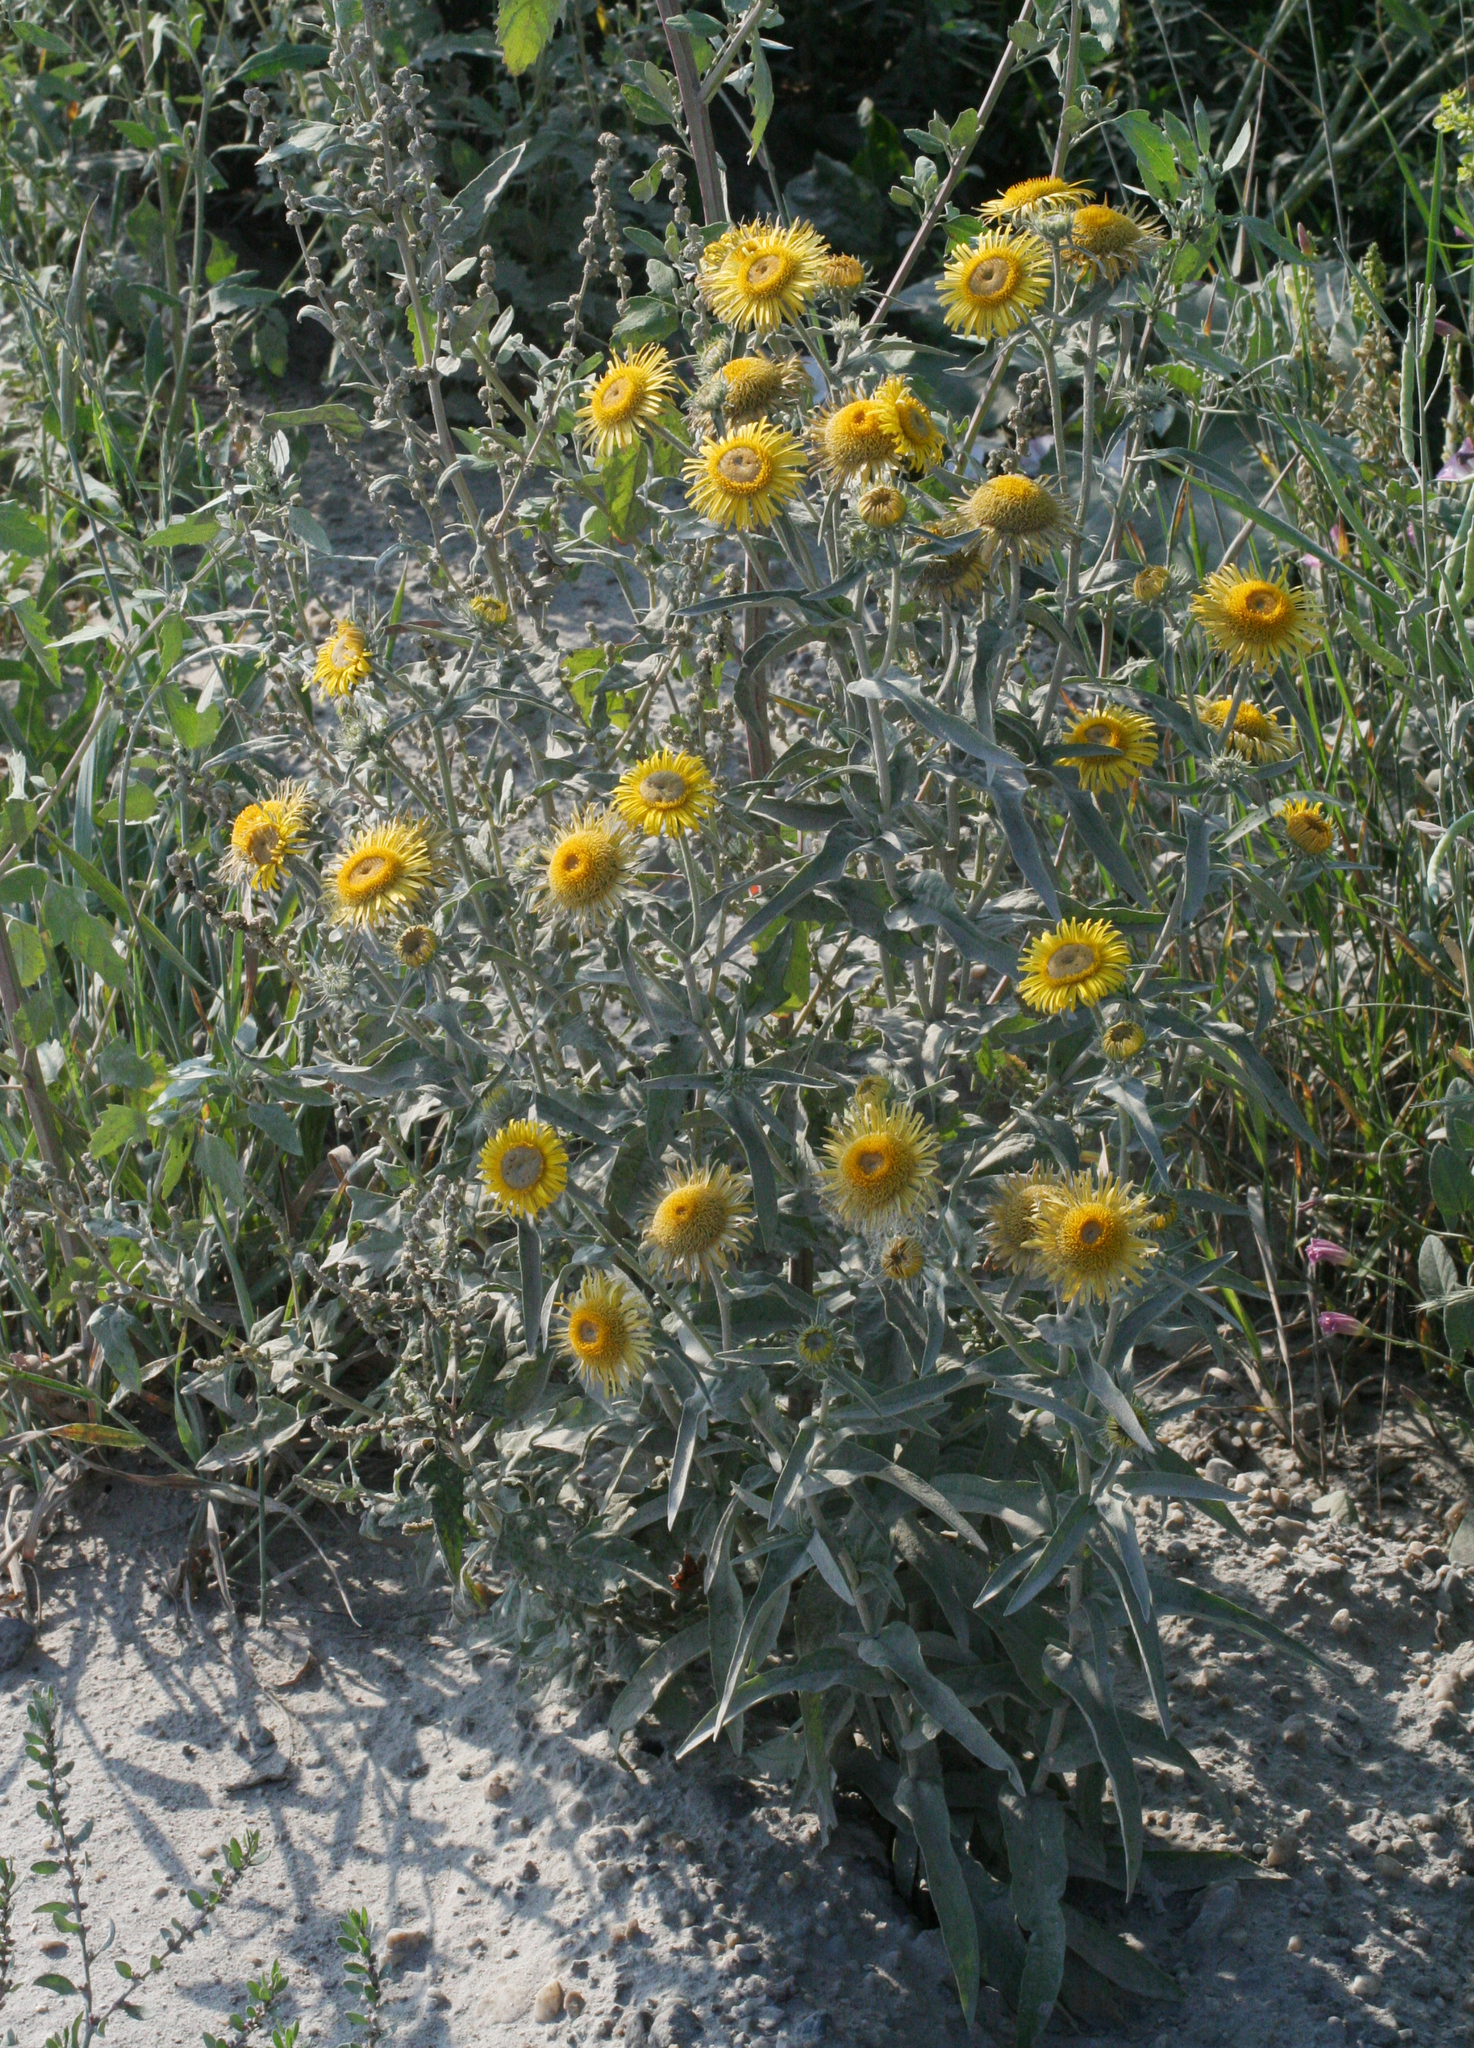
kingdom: Plantae
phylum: Tracheophyta
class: Magnoliopsida
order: Asterales
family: Asteraceae
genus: Pentanema
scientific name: Pentanema britannicum
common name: British elecampane
